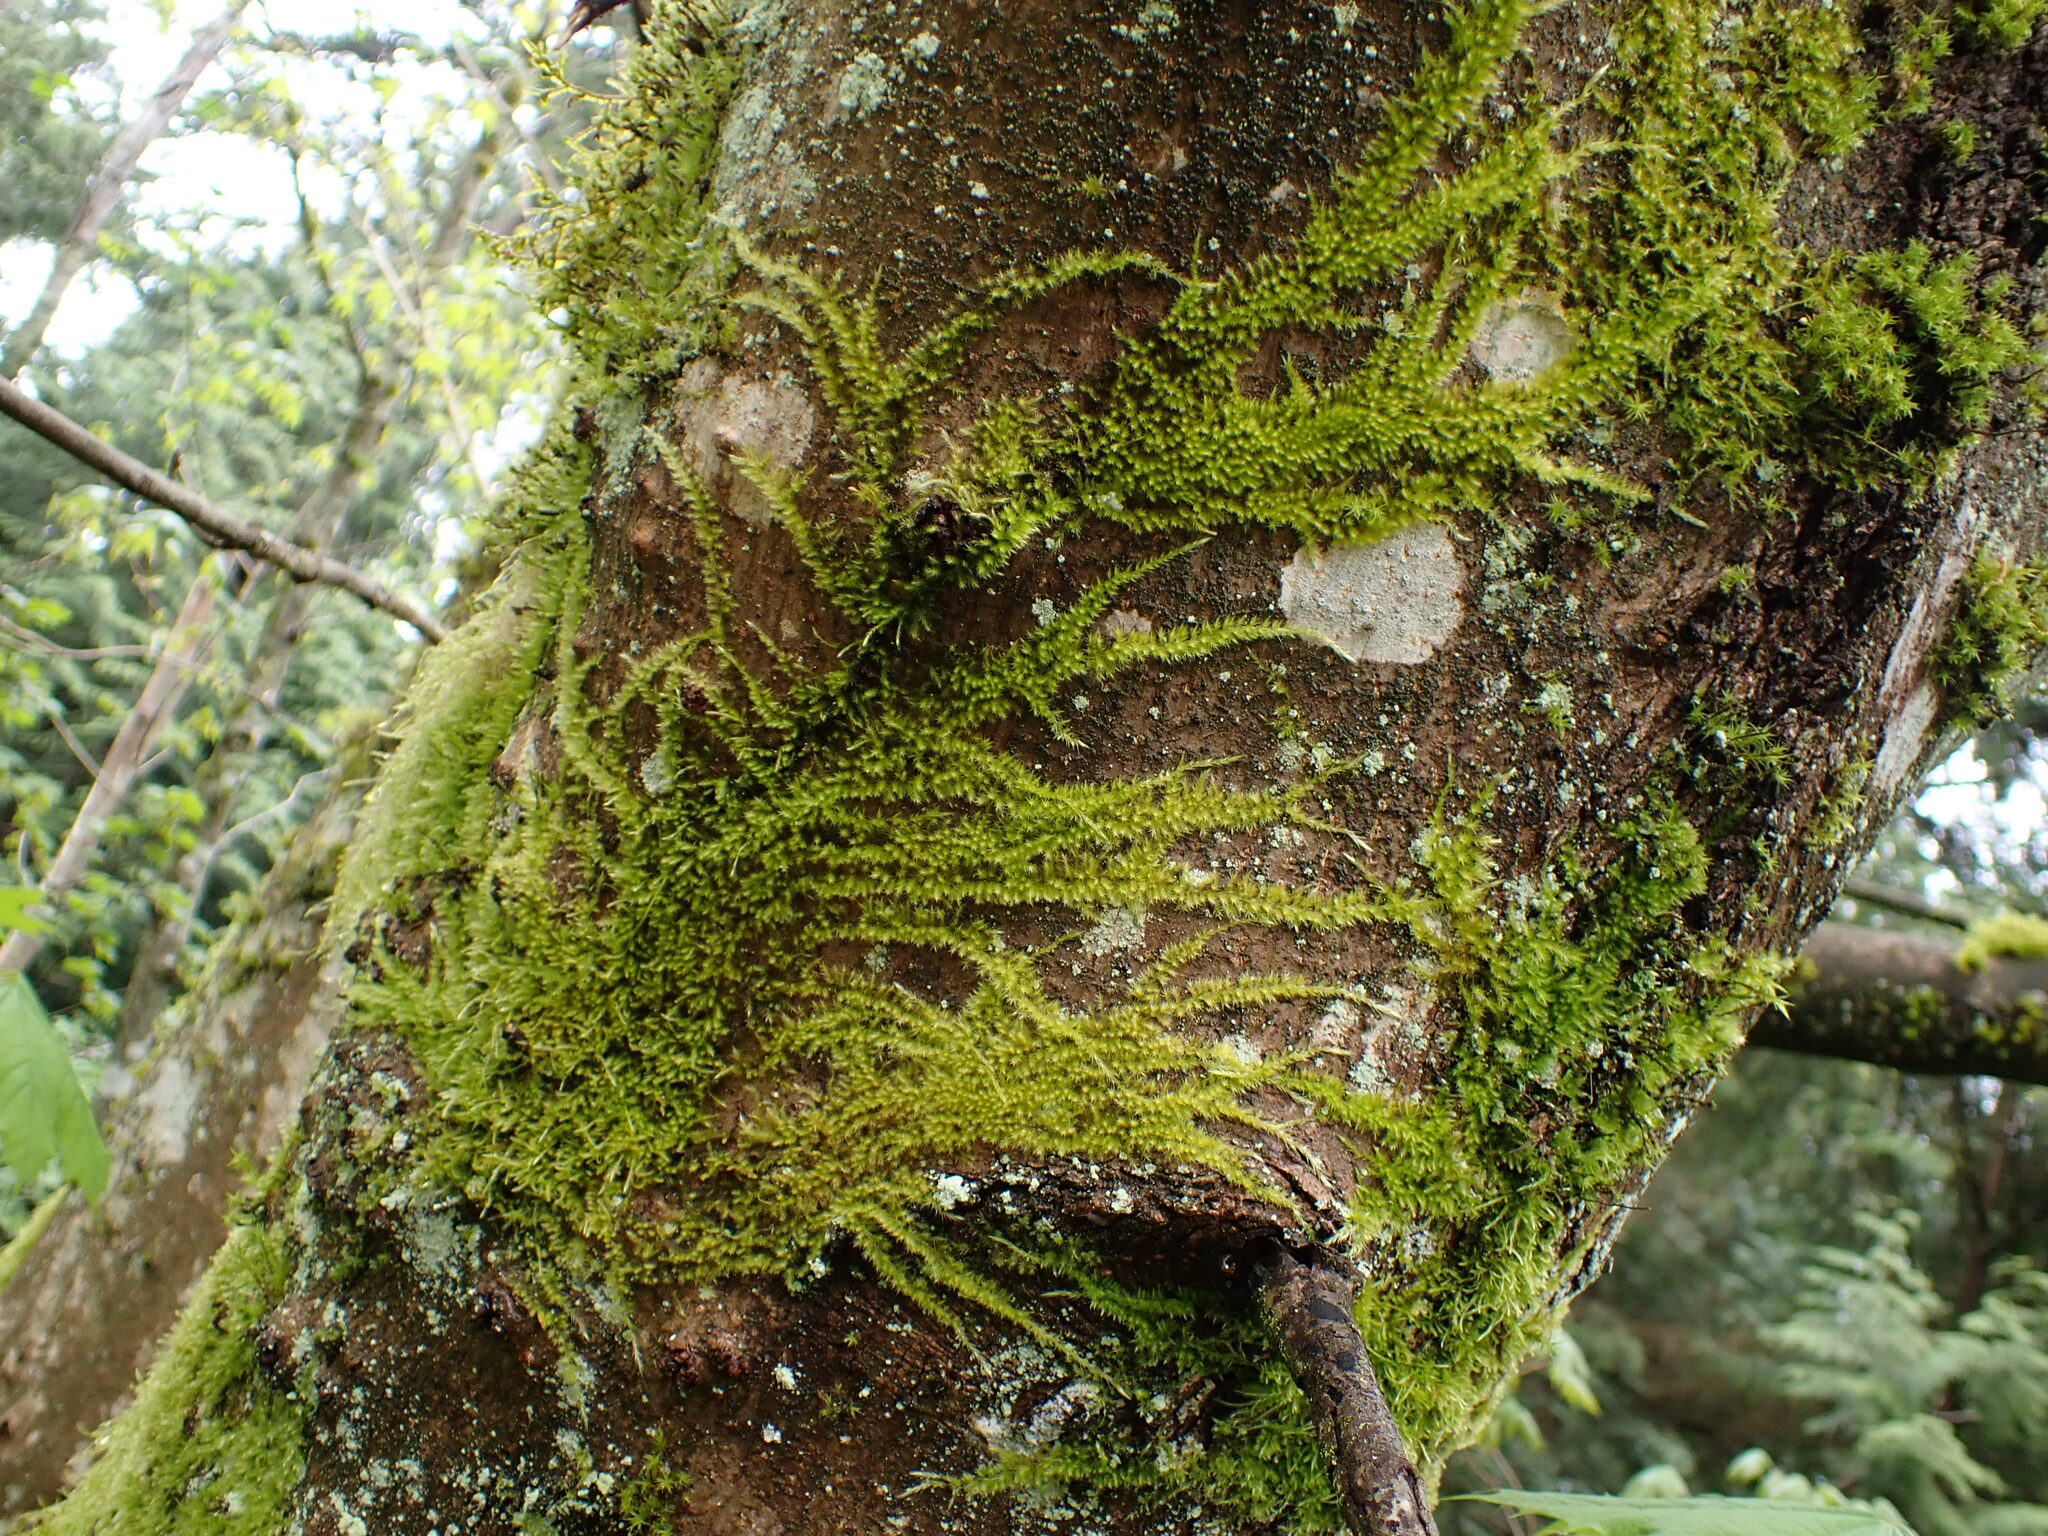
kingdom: Plantae
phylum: Bryophyta
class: Bryopsida
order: Hypnales
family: Brachytheciaceae
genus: Homalothecium
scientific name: Homalothecium nuttallii
